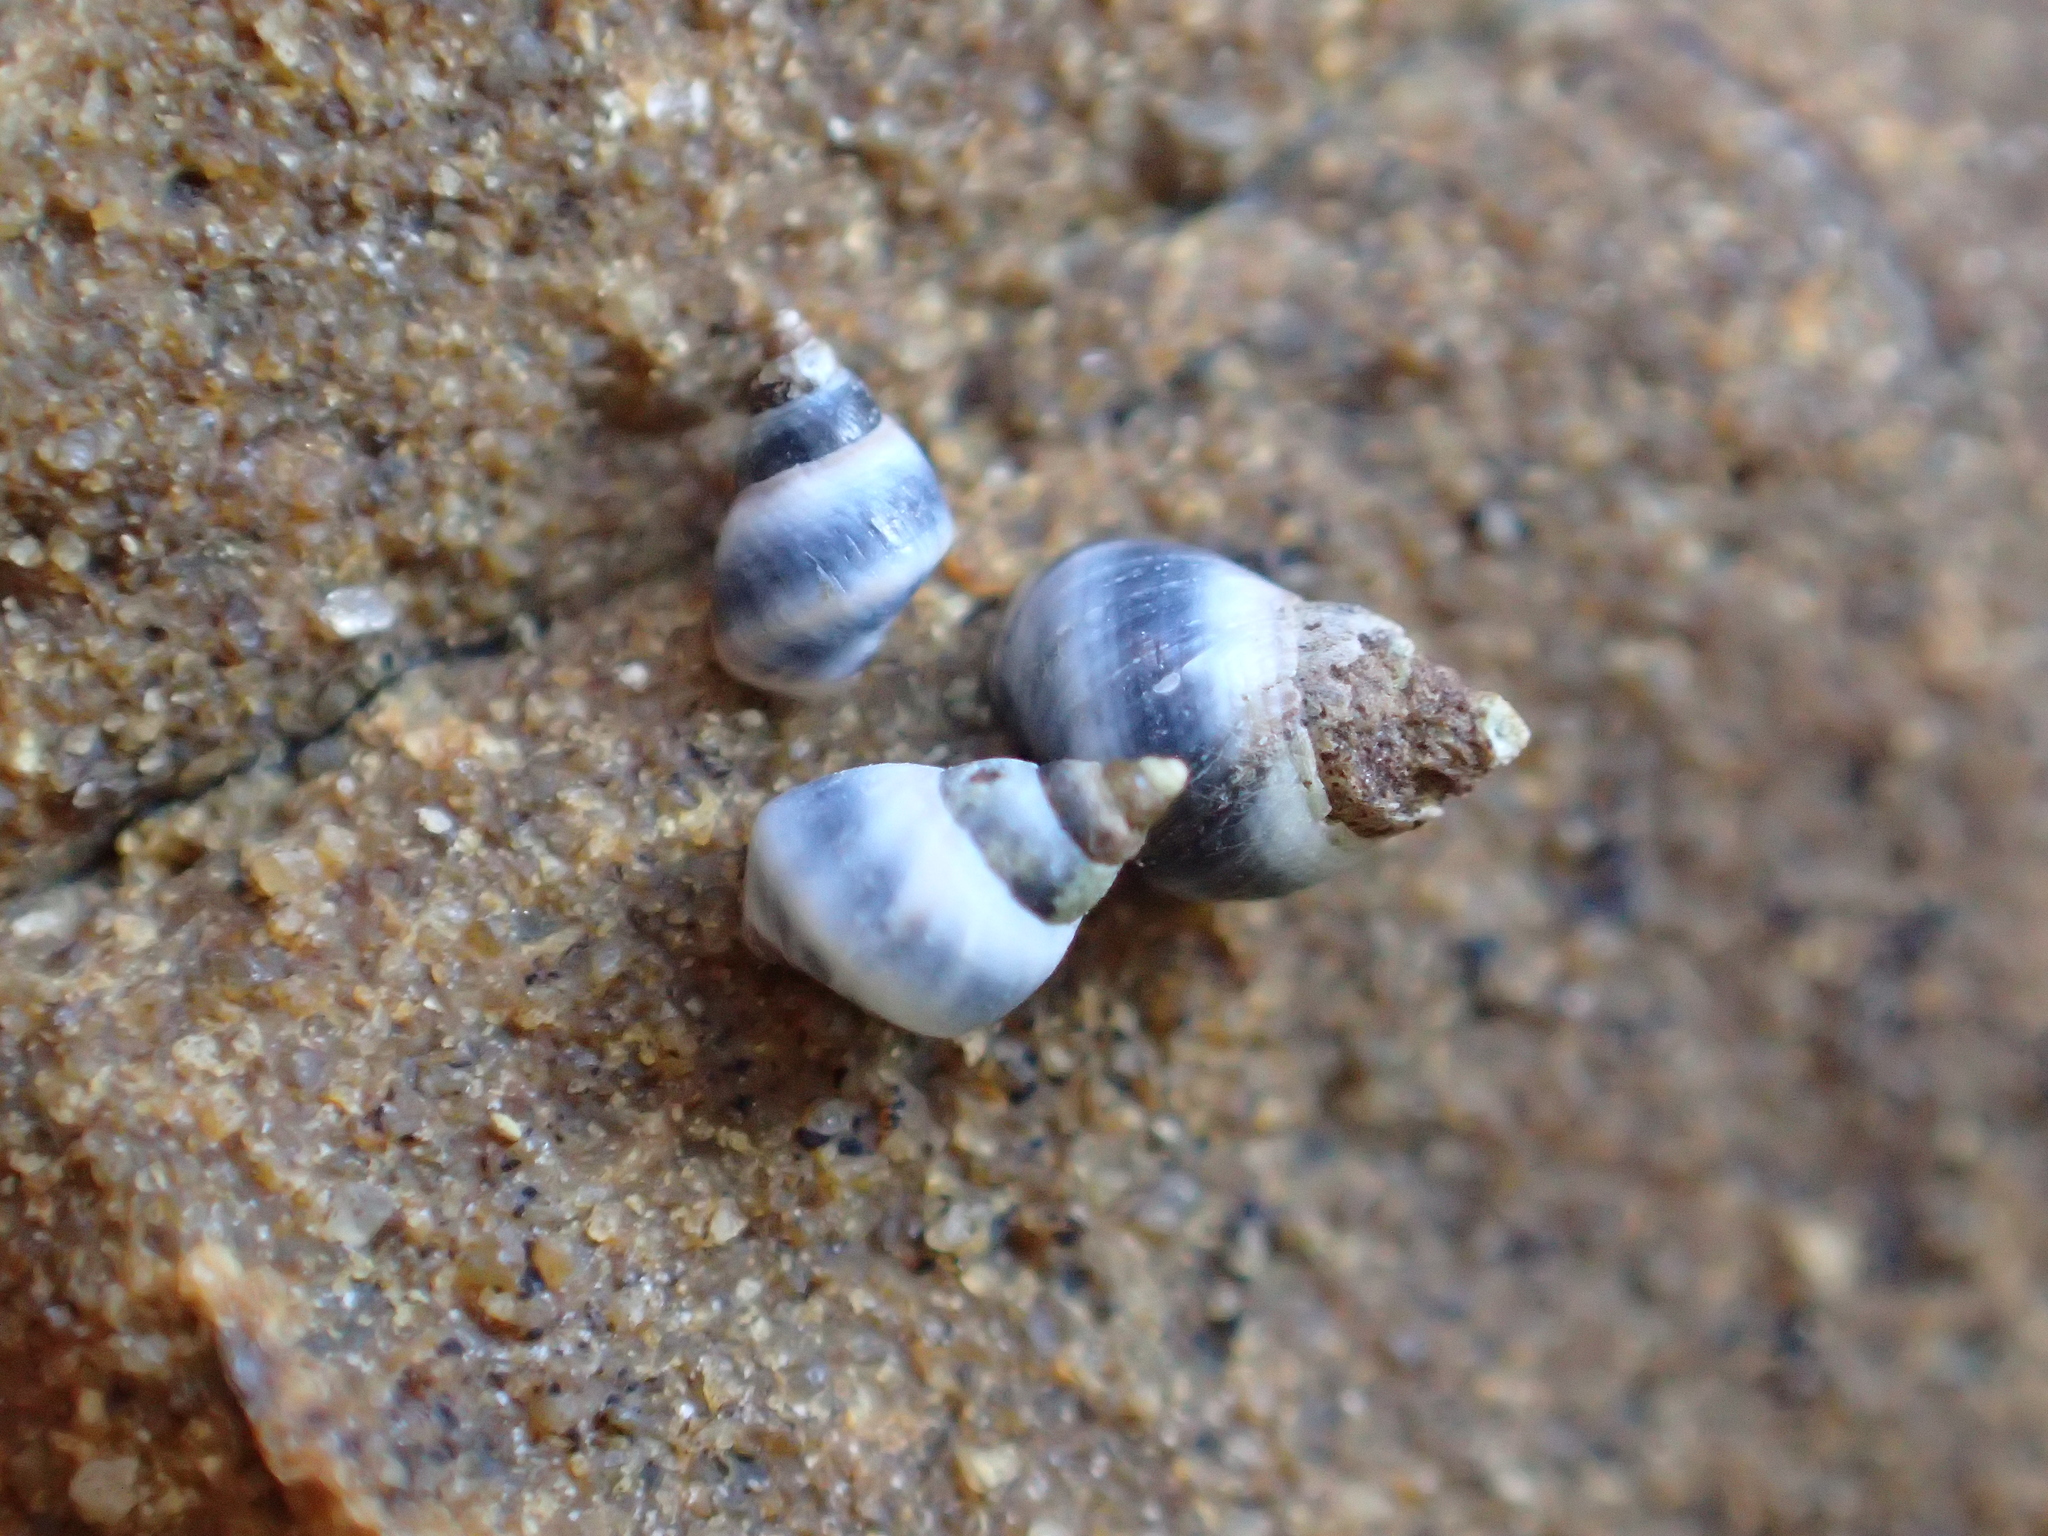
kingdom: Animalia
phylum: Mollusca
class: Gastropoda
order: Littorinimorpha
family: Littorinidae
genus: Austrolittorina
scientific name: Austrolittorina antipodum
